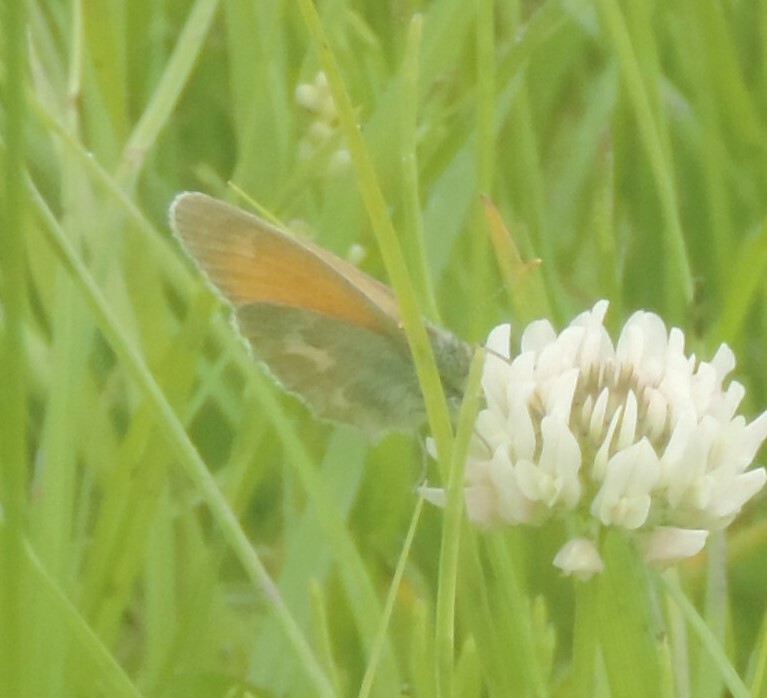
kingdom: Animalia
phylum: Arthropoda
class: Insecta
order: Lepidoptera
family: Nymphalidae
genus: Coenonympha
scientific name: Coenonympha california
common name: Common ringlet
